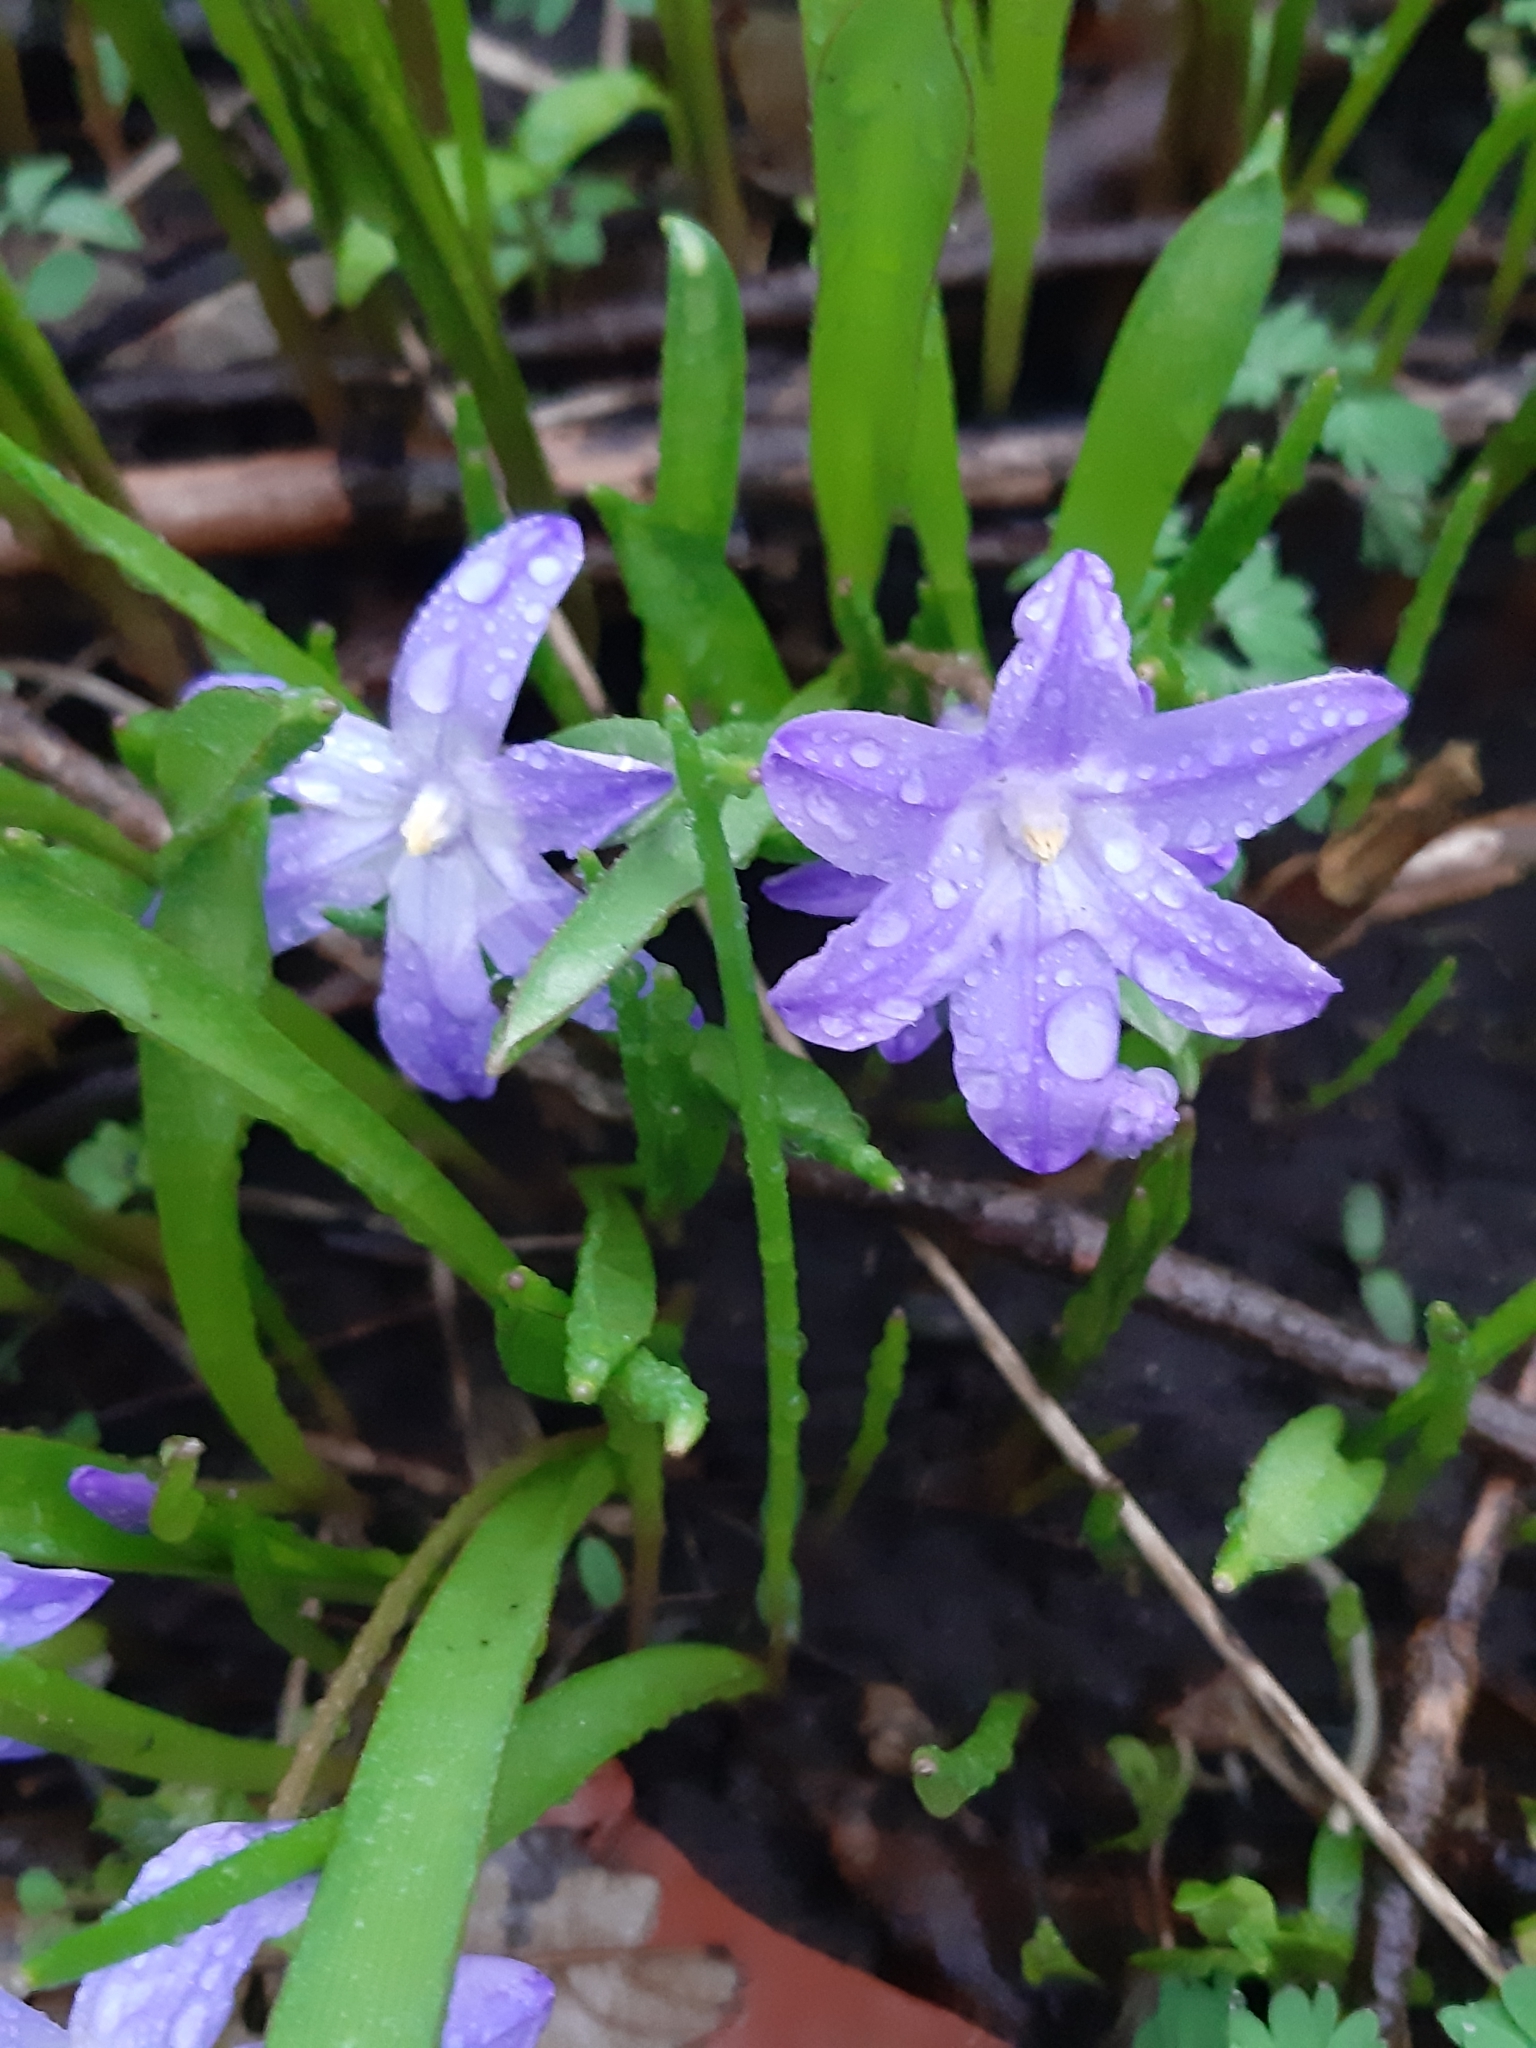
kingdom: Plantae
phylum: Tracheophyta
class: Liliopsida
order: Asparagales
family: Asparagaceae
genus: Scilla
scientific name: Scilla luciliae
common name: Boissier's glory-of-the-snow
